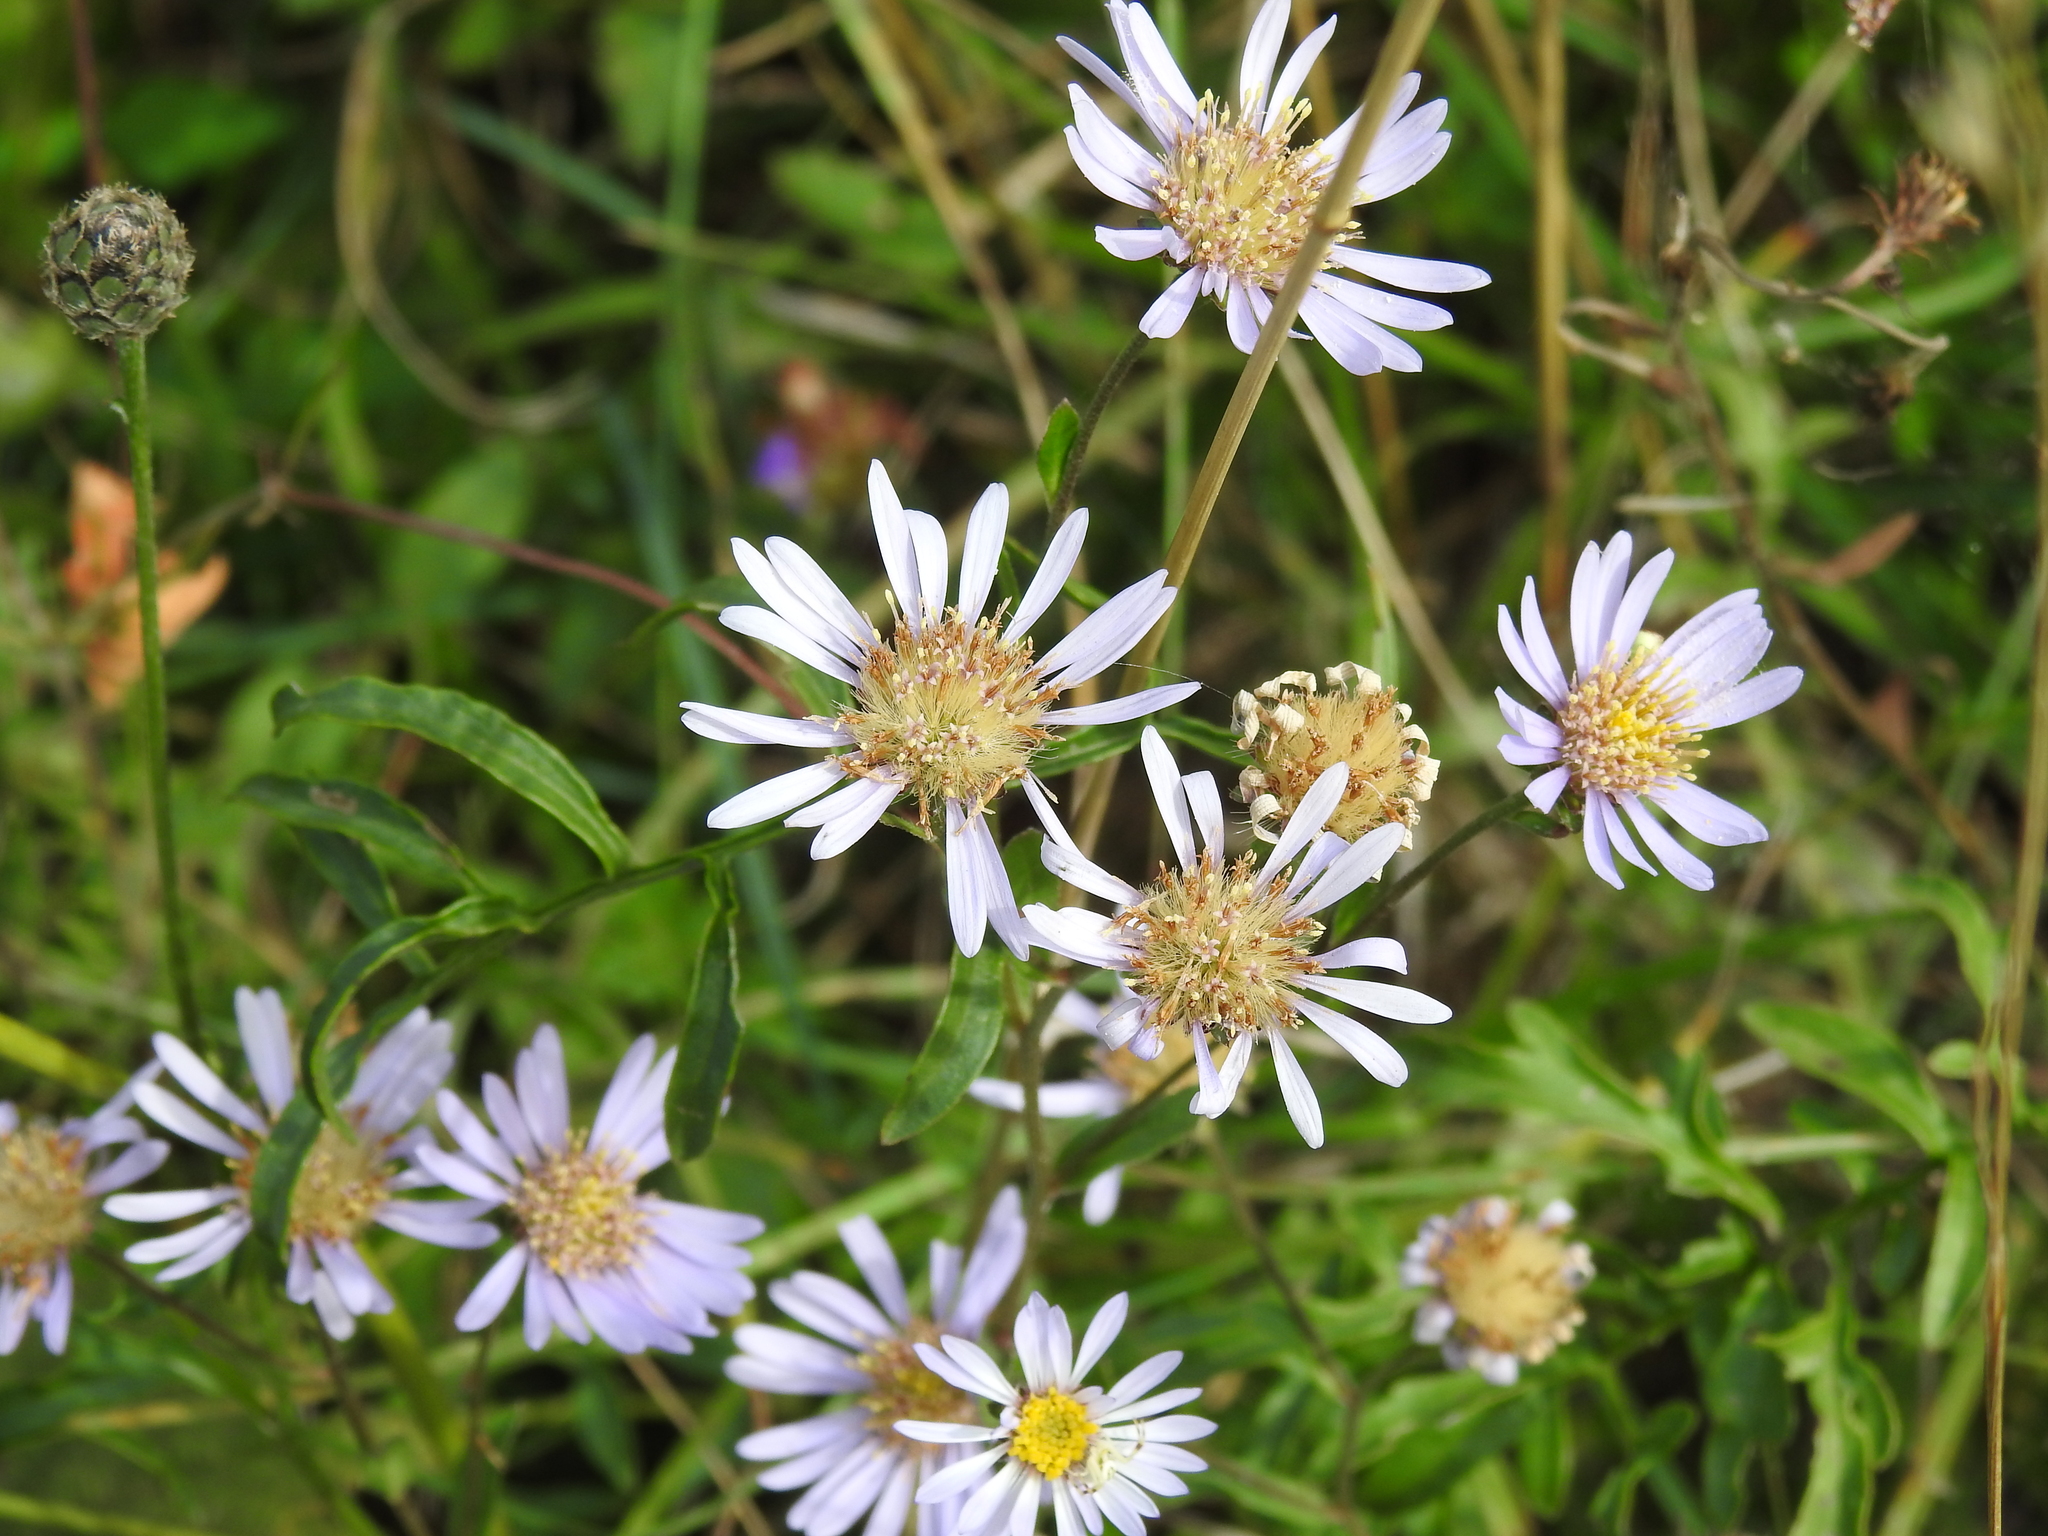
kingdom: Plantae
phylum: Tracheophyta
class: Magnoliopsida
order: Asterales
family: Asteraceae
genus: Aster
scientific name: Aster amellus
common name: European michaelmas daisy
